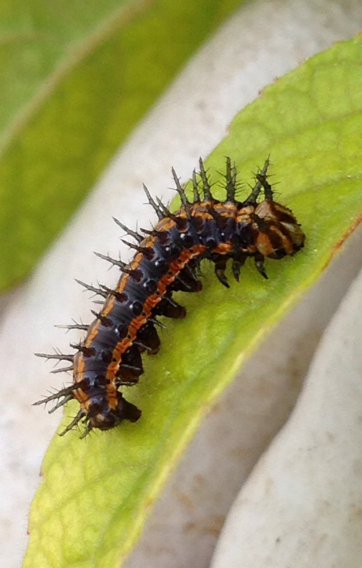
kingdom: Animalia
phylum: Arthropoda
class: Insecta
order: Lepidoptera
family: Nymphalidae
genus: Dione
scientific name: Dione vanillae
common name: Gulf fritillary
